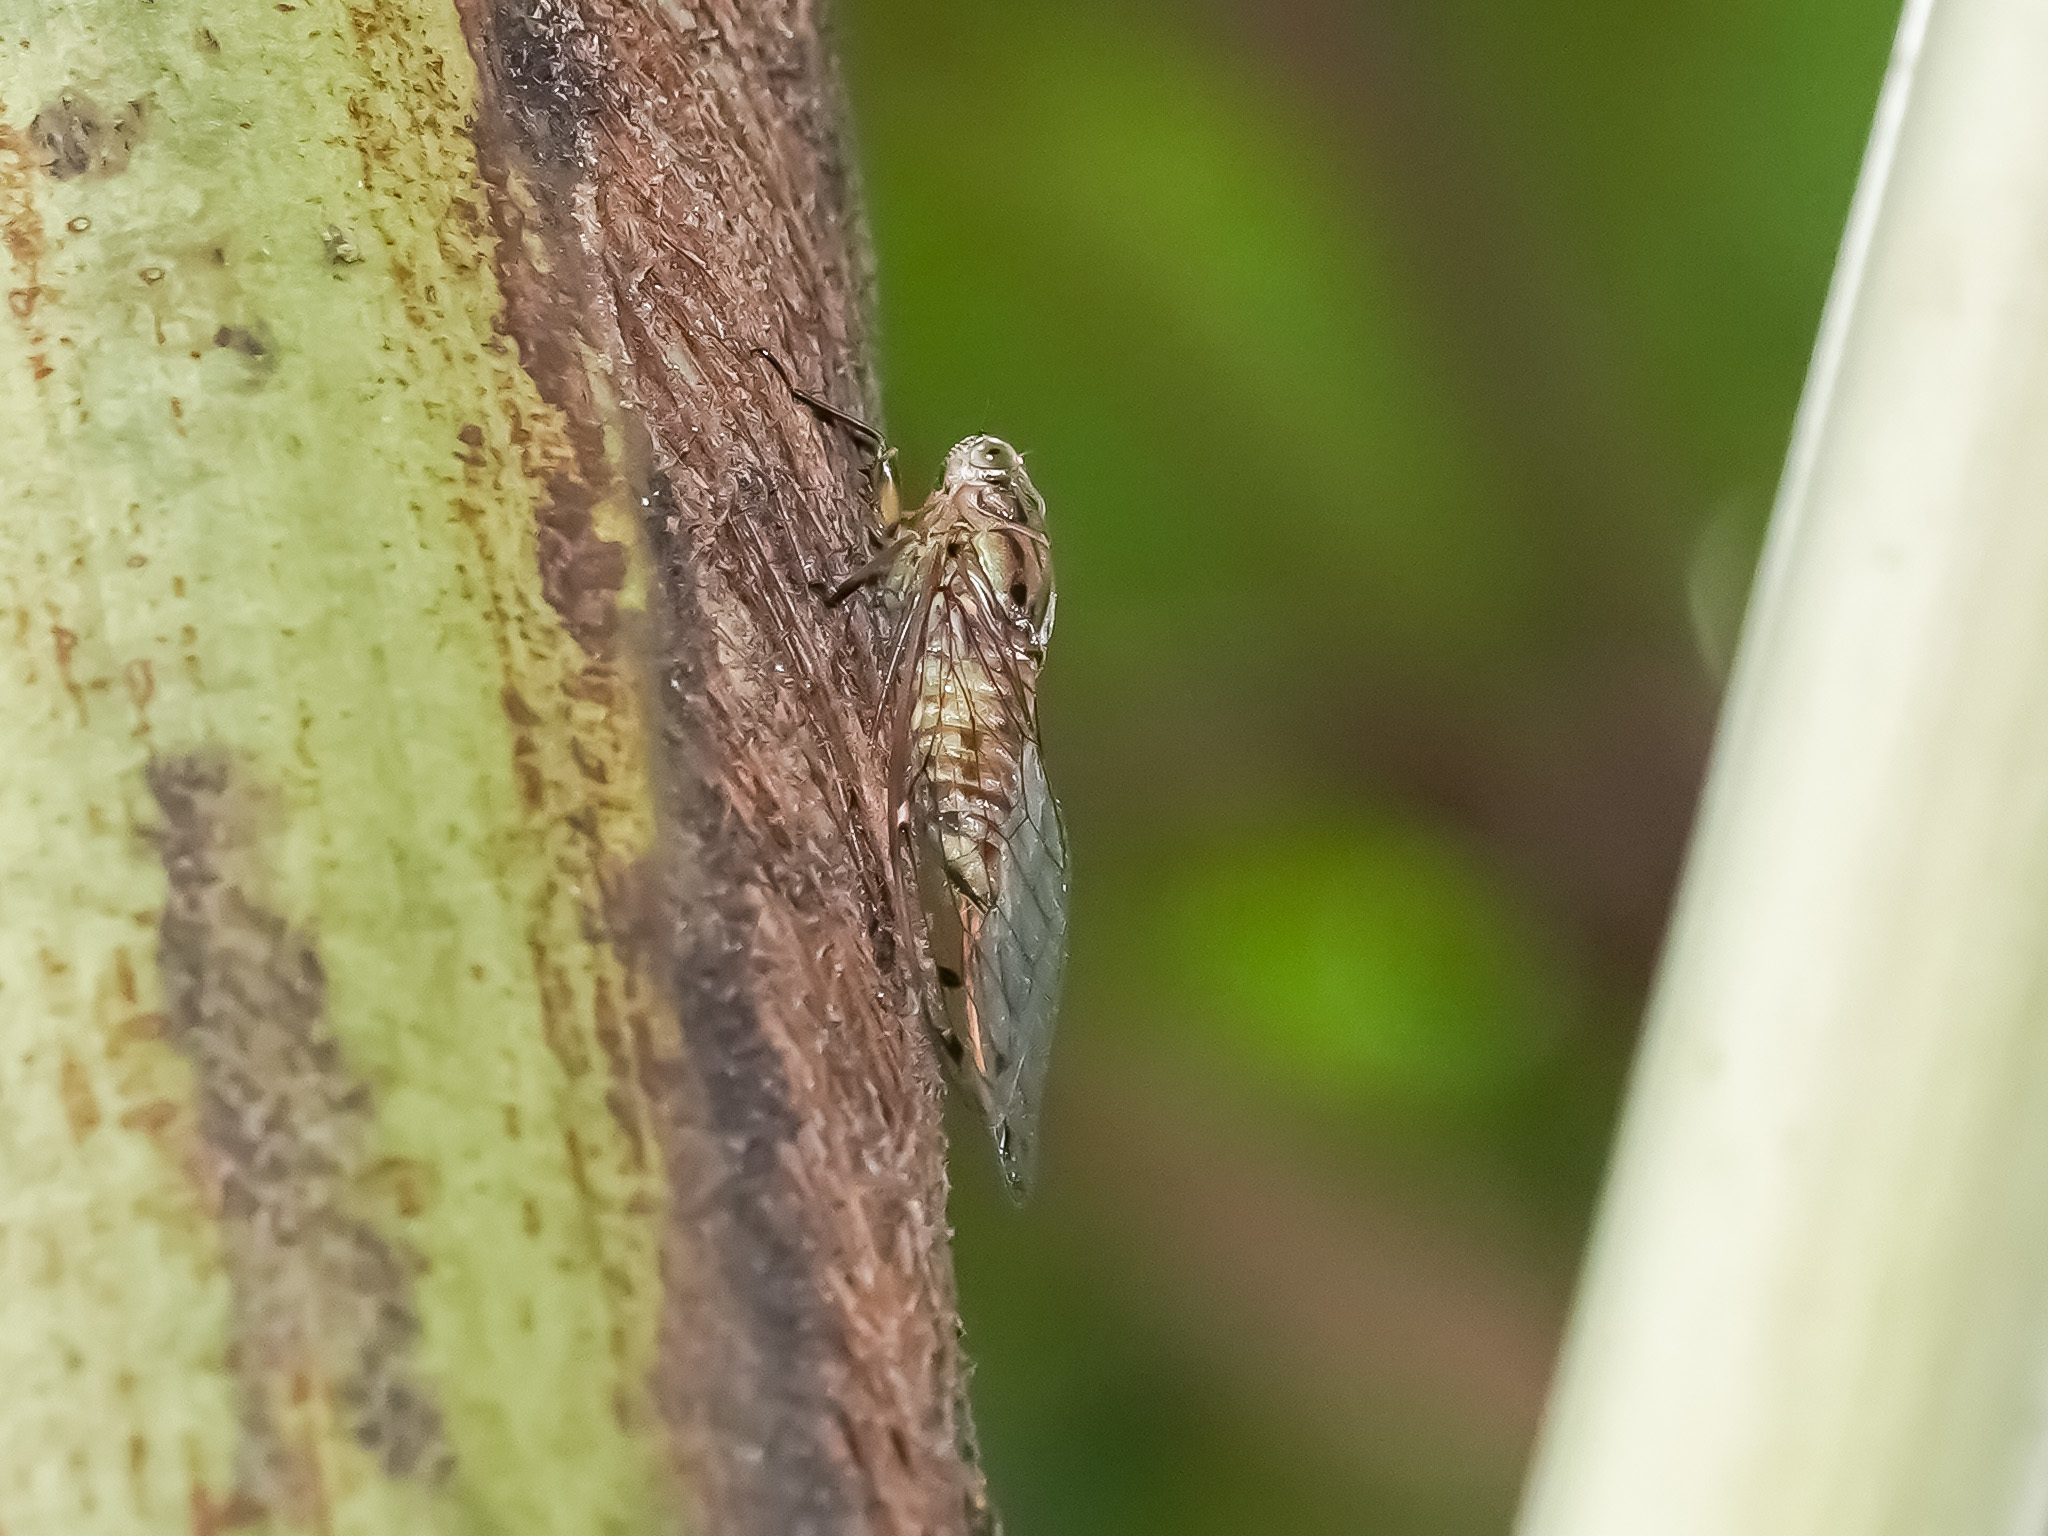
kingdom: Animalia
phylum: Arthropoda
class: Insecta
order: Hemiptera
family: Cicadidae
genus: Purana
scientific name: Purana usnani
